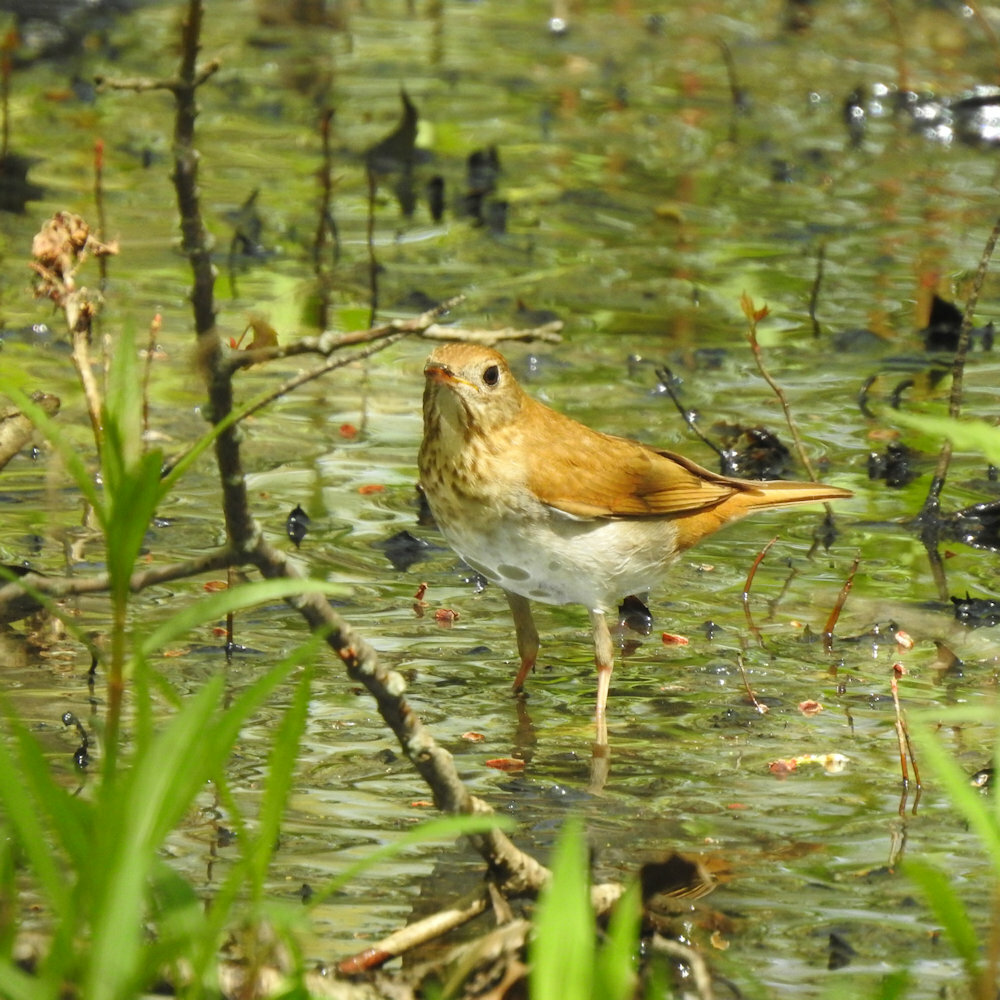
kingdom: Animalia
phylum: Chordata
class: Aves
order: Passeriformes
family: Turdidae
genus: Catharus
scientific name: Catharus fuscescens
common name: Veery
